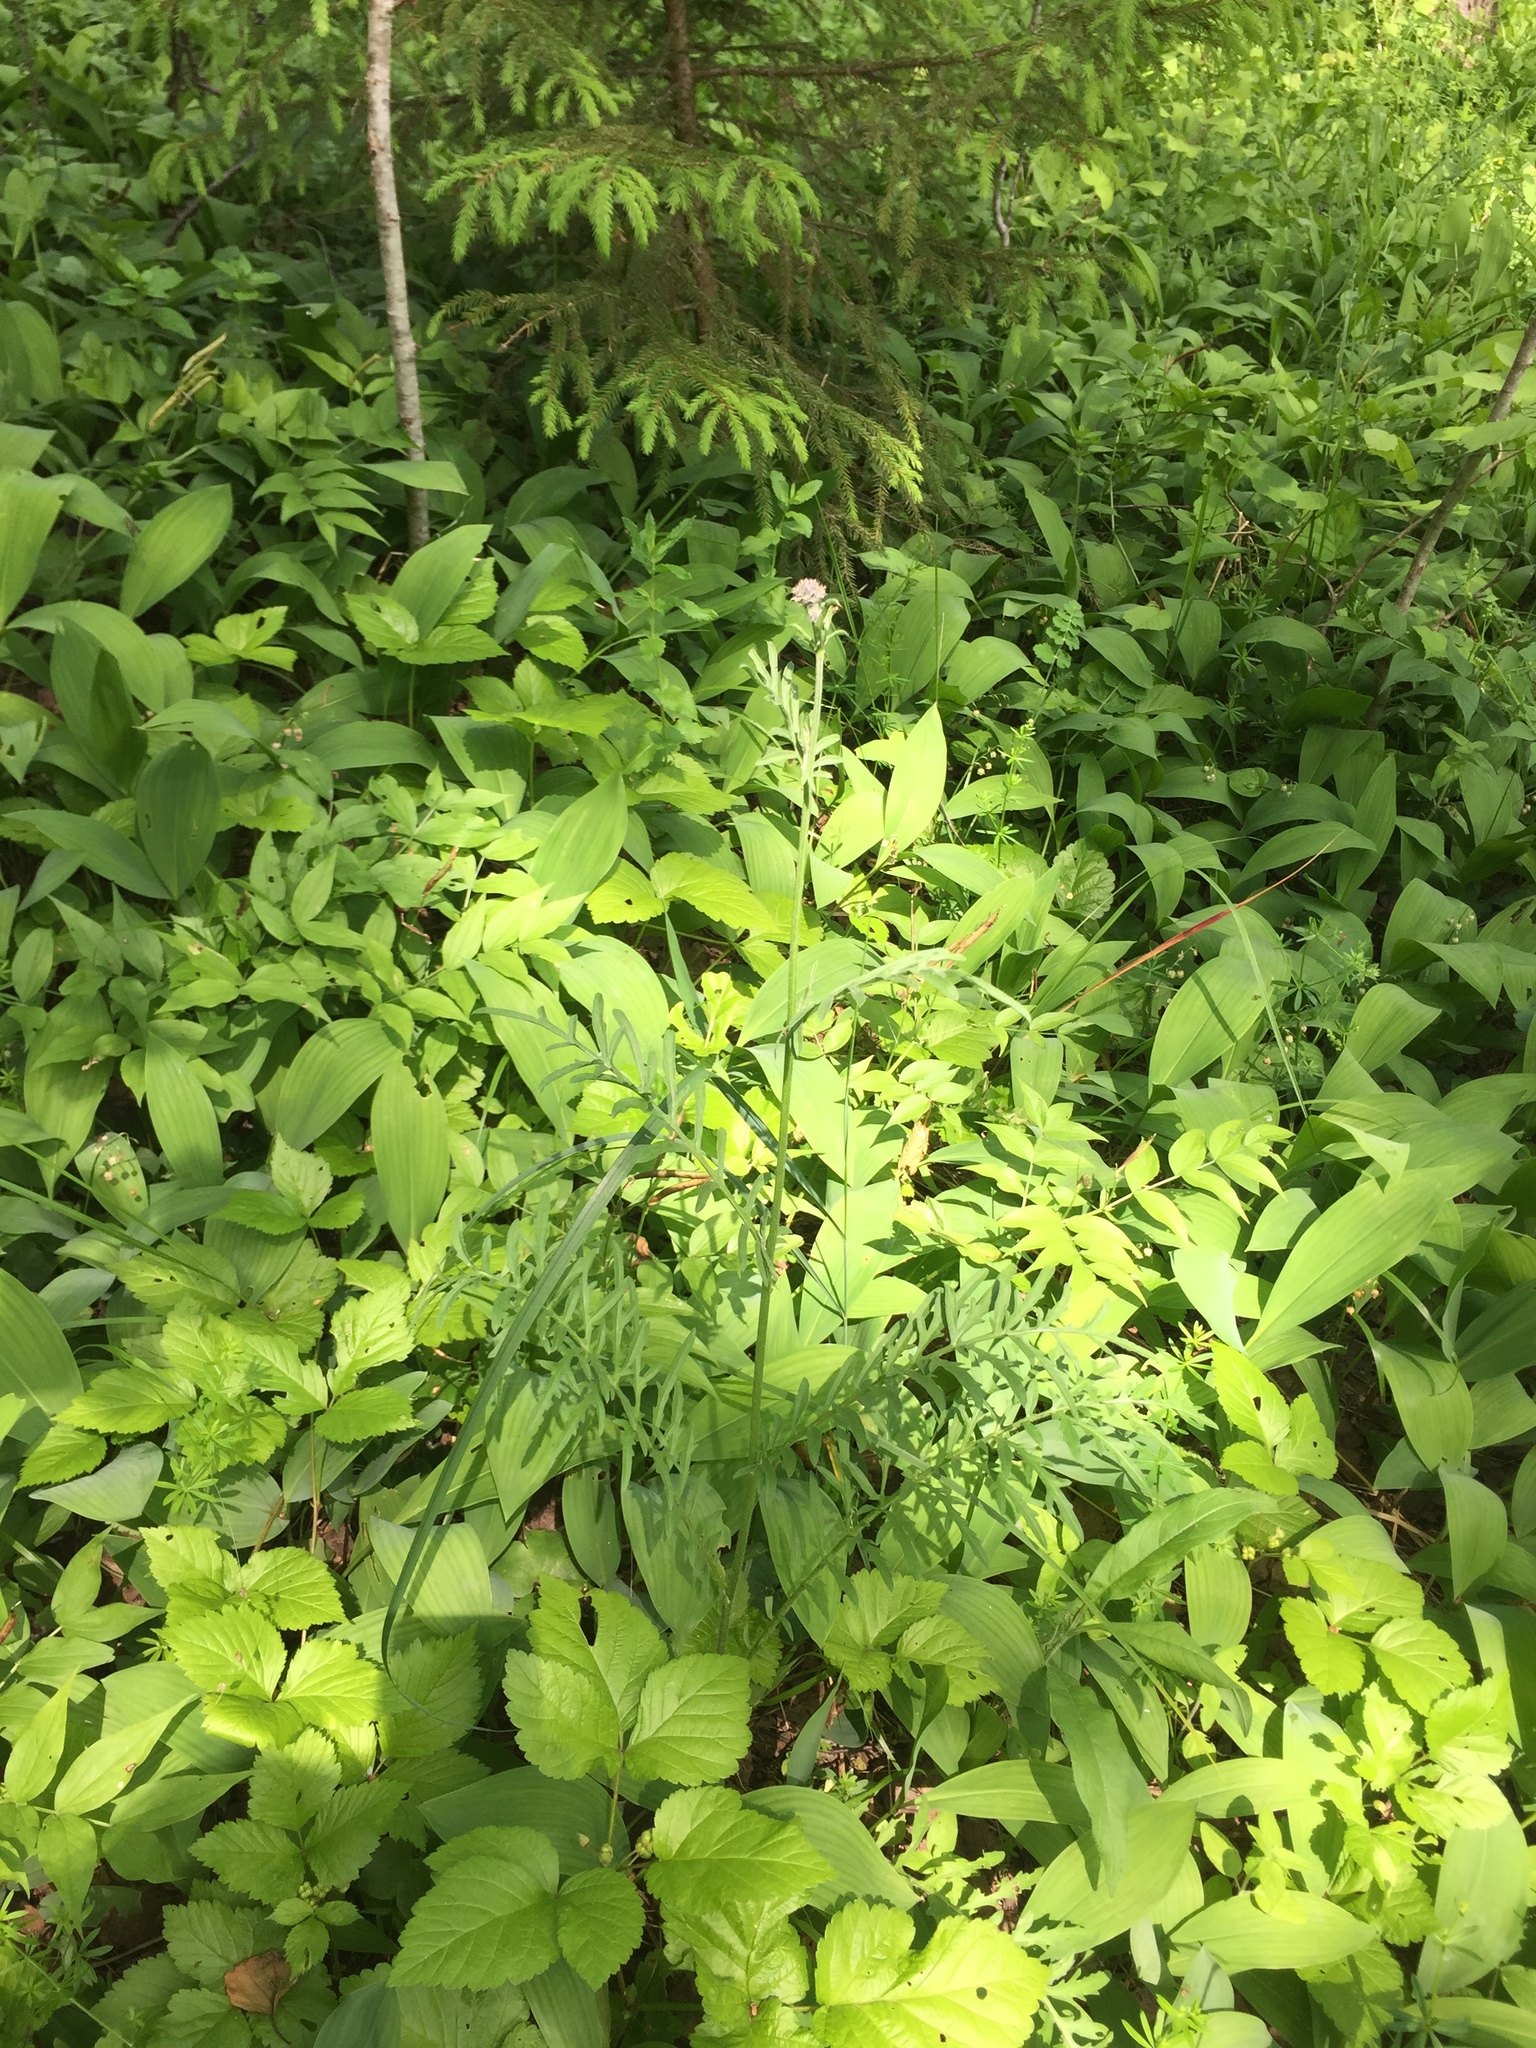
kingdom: Plantae
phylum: Tracheophyta
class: Magnoliopsida
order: Asterales
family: Asteraceae
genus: Centaurea
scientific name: Centaurea scabiosa
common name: Greater knapweed
